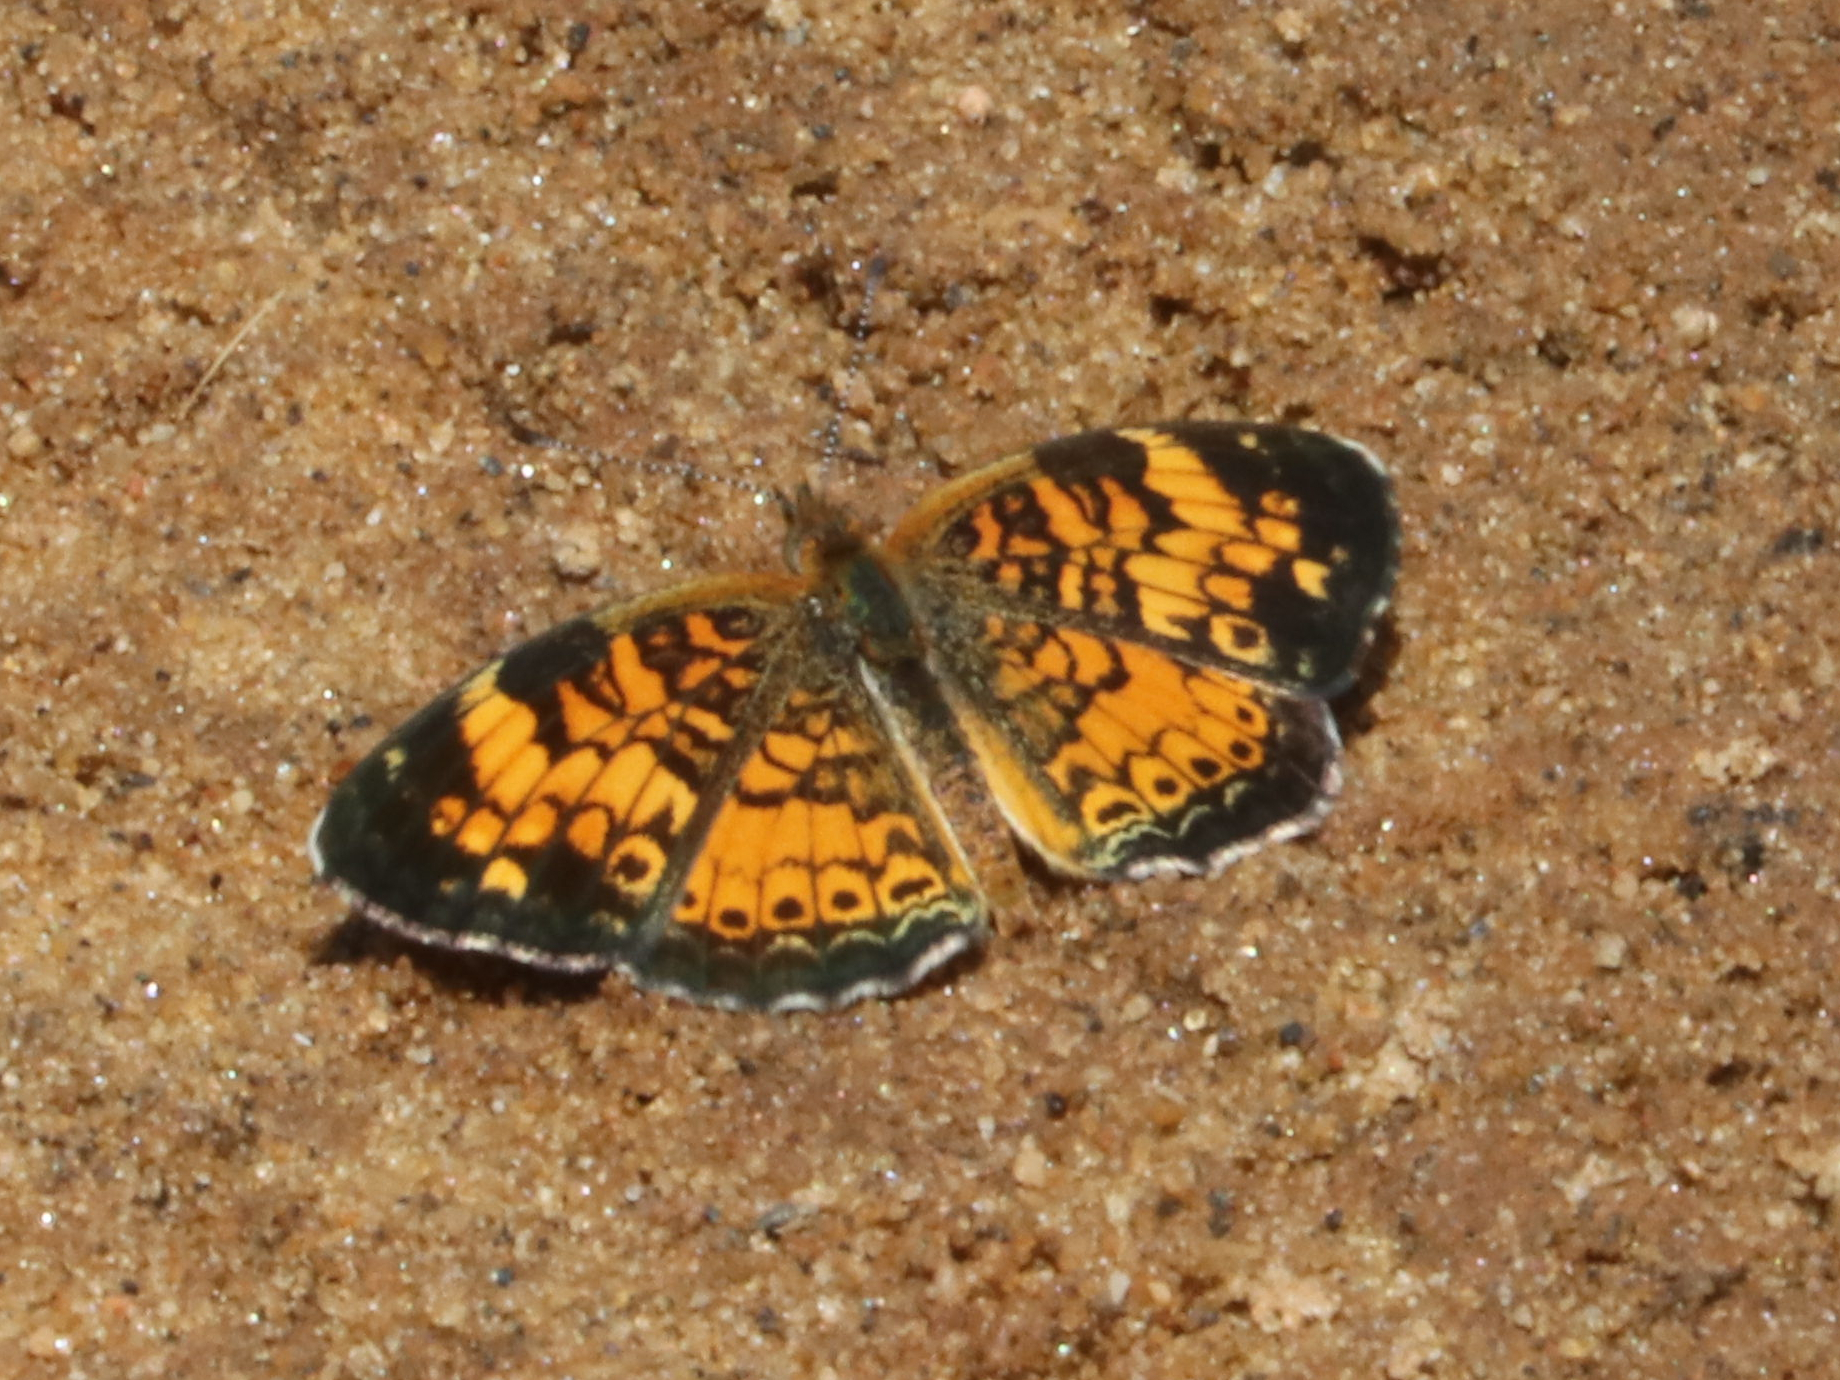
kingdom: Animalia
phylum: Arthropoda
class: Insecta
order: Lepidoptera
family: Nymphalidae
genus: Phyciodes
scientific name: Phyciodes tharos
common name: Pearl crescent
